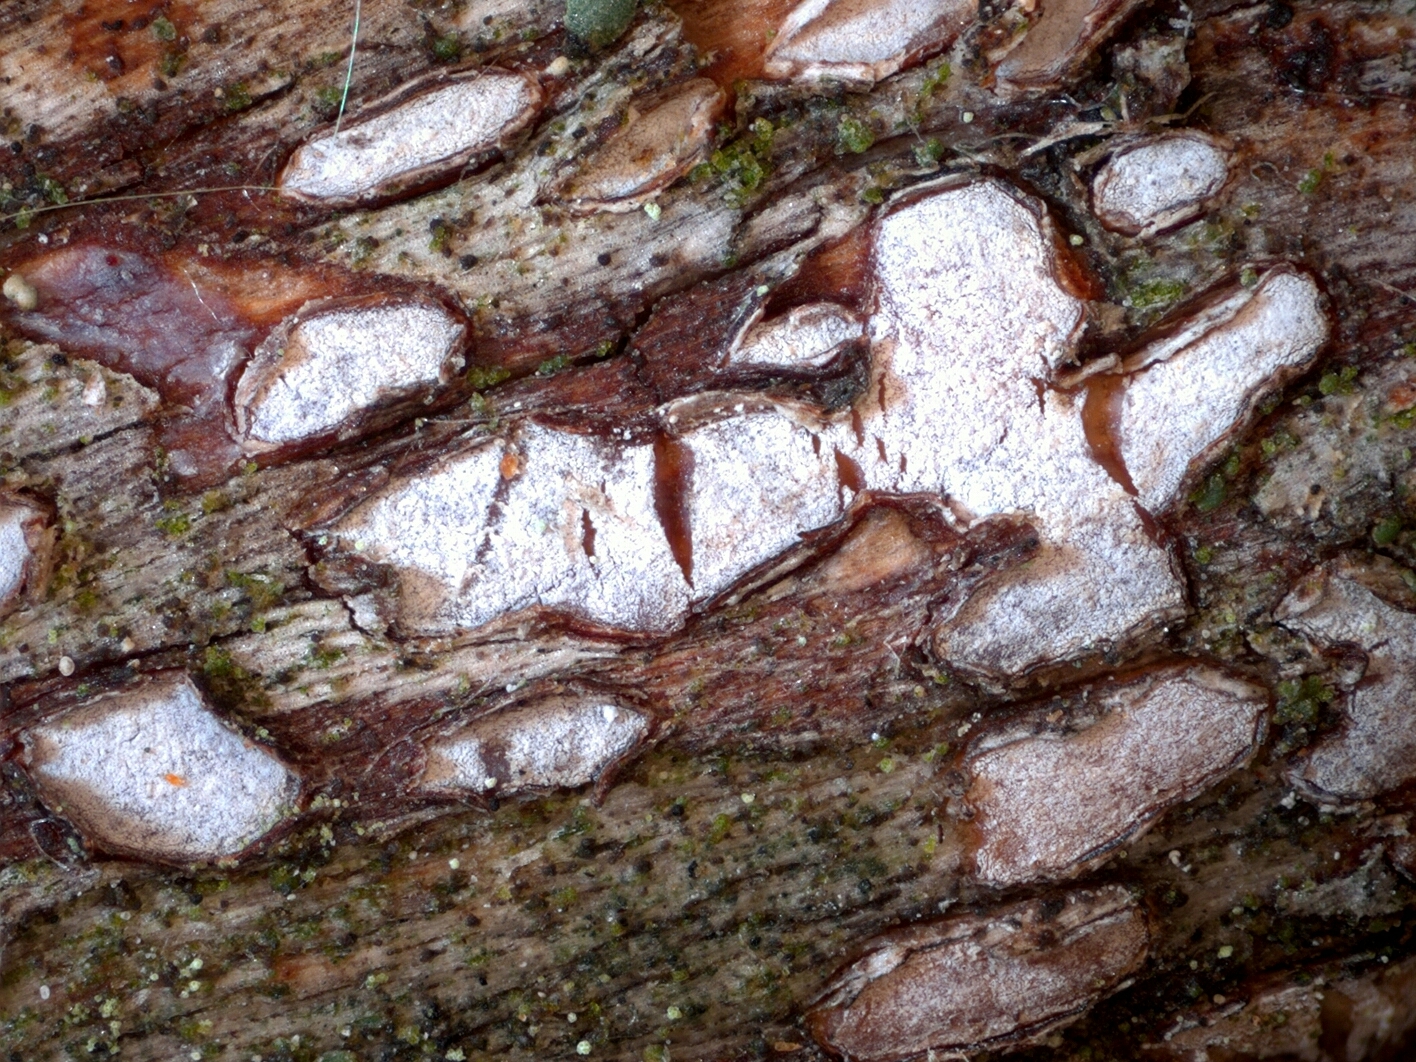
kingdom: Fungi
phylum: Ascomycota
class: Leotiomycetes
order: Chaetomellales
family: Marthamycetaceae
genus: Propolis
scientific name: Propolis farinosa
